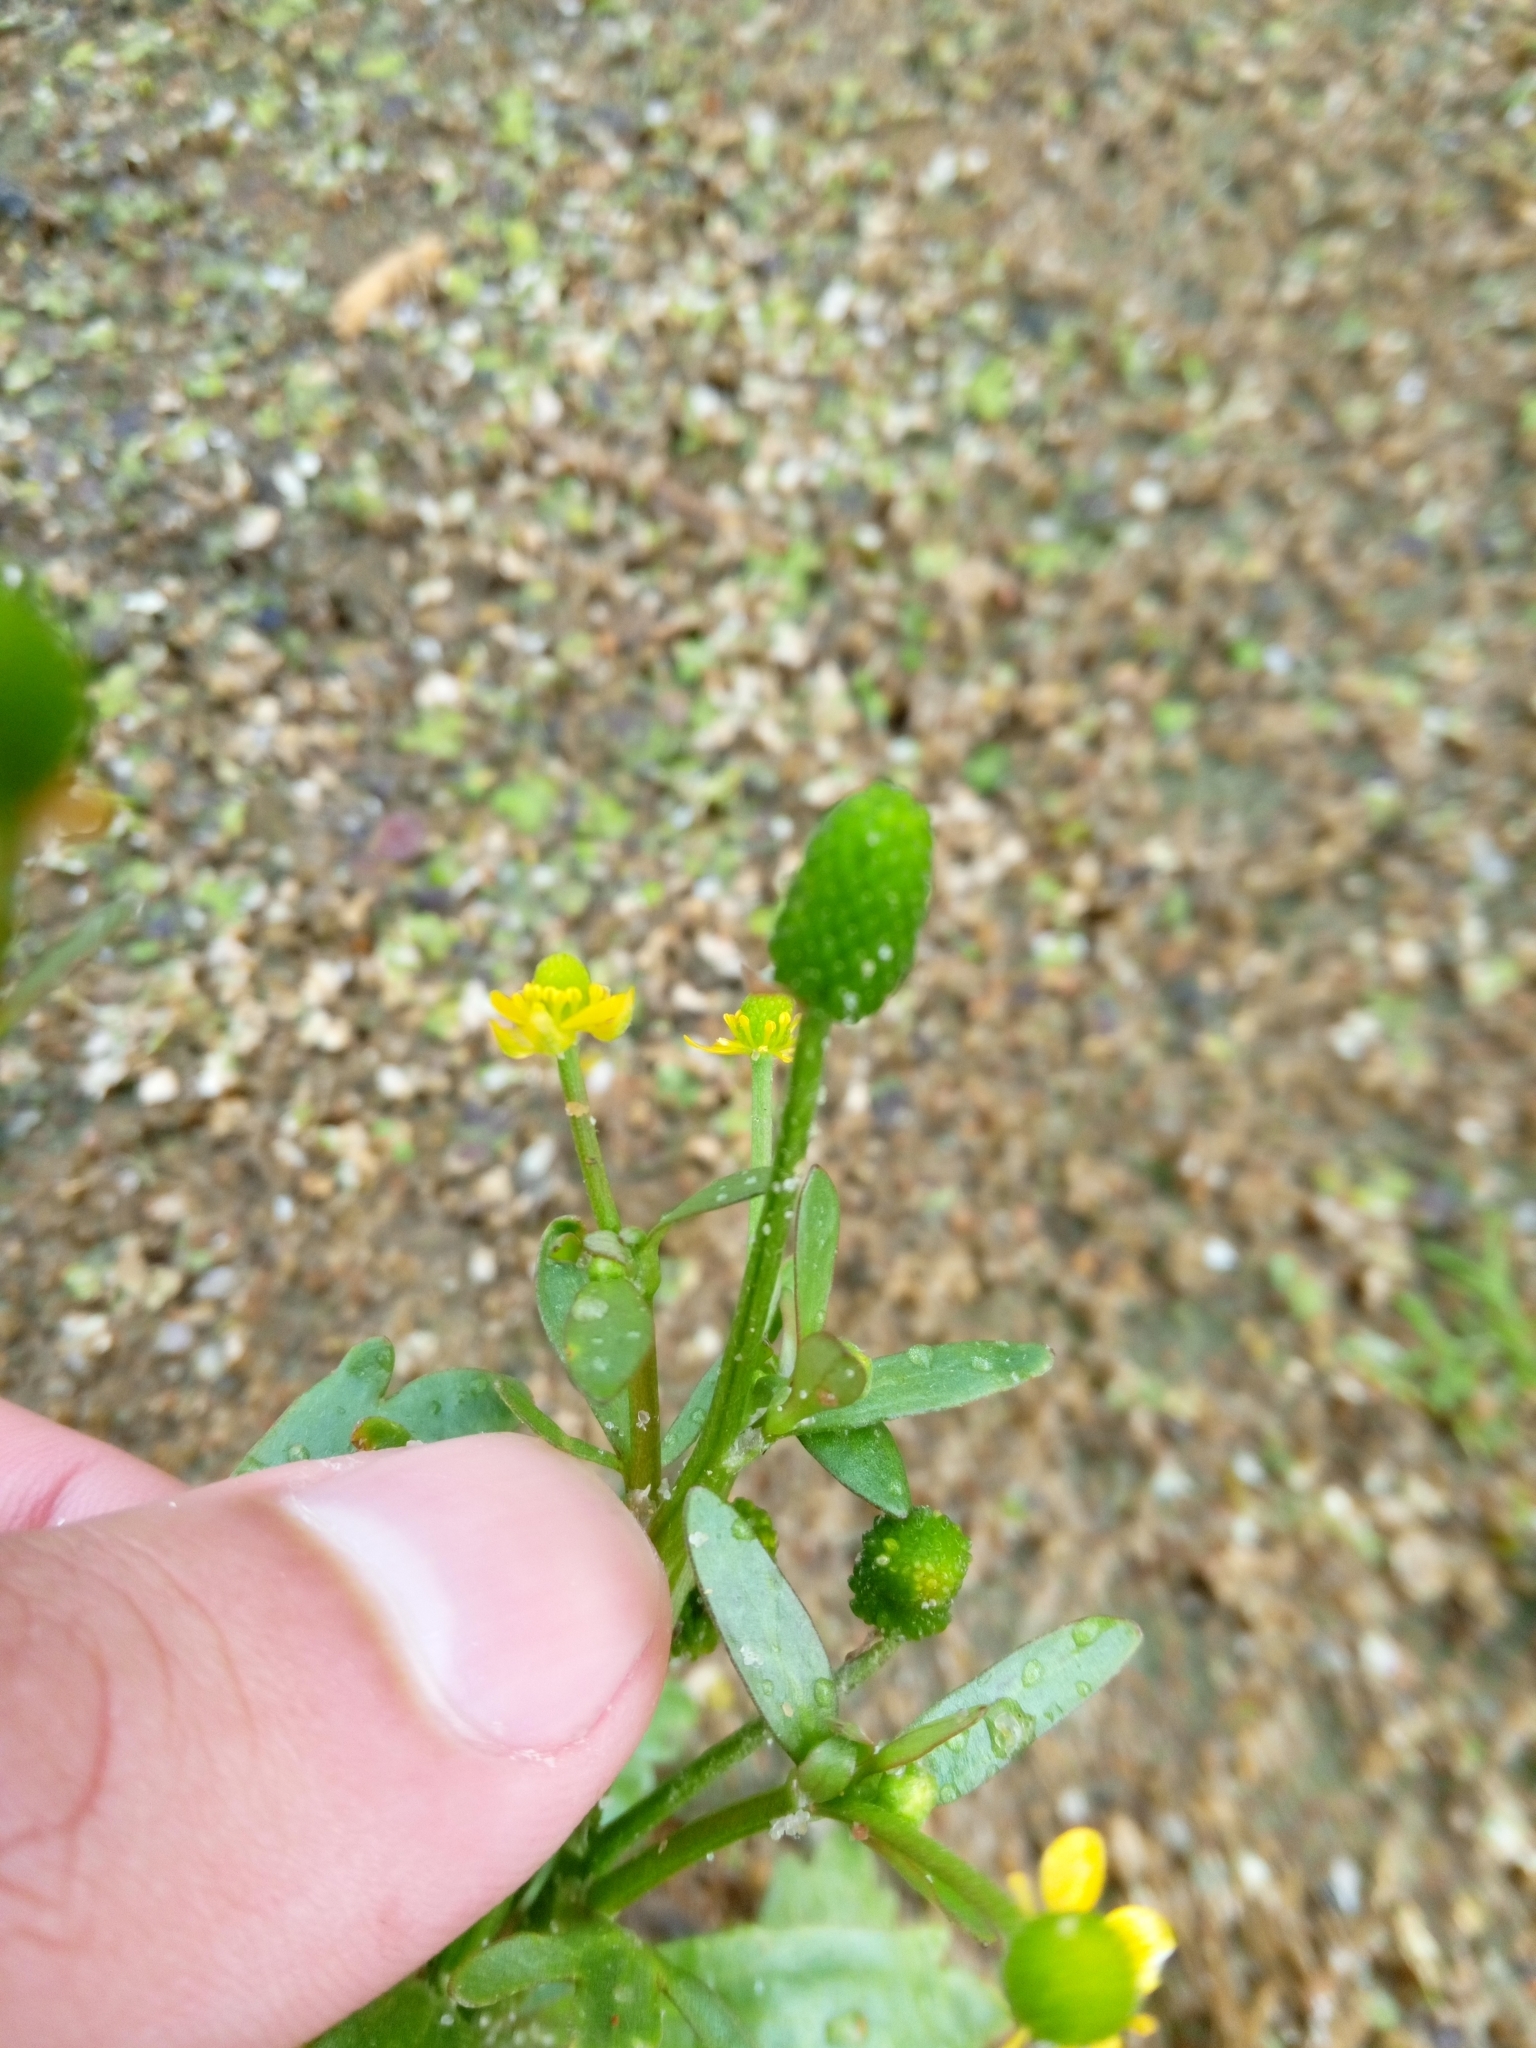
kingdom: Plantae
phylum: Tracheophyta
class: Magnoliopsida
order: Ranunculales
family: Ranunculaceae
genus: Ranunculus
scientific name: Ranunculus sceleratus
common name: Celery-leaved buttercup
